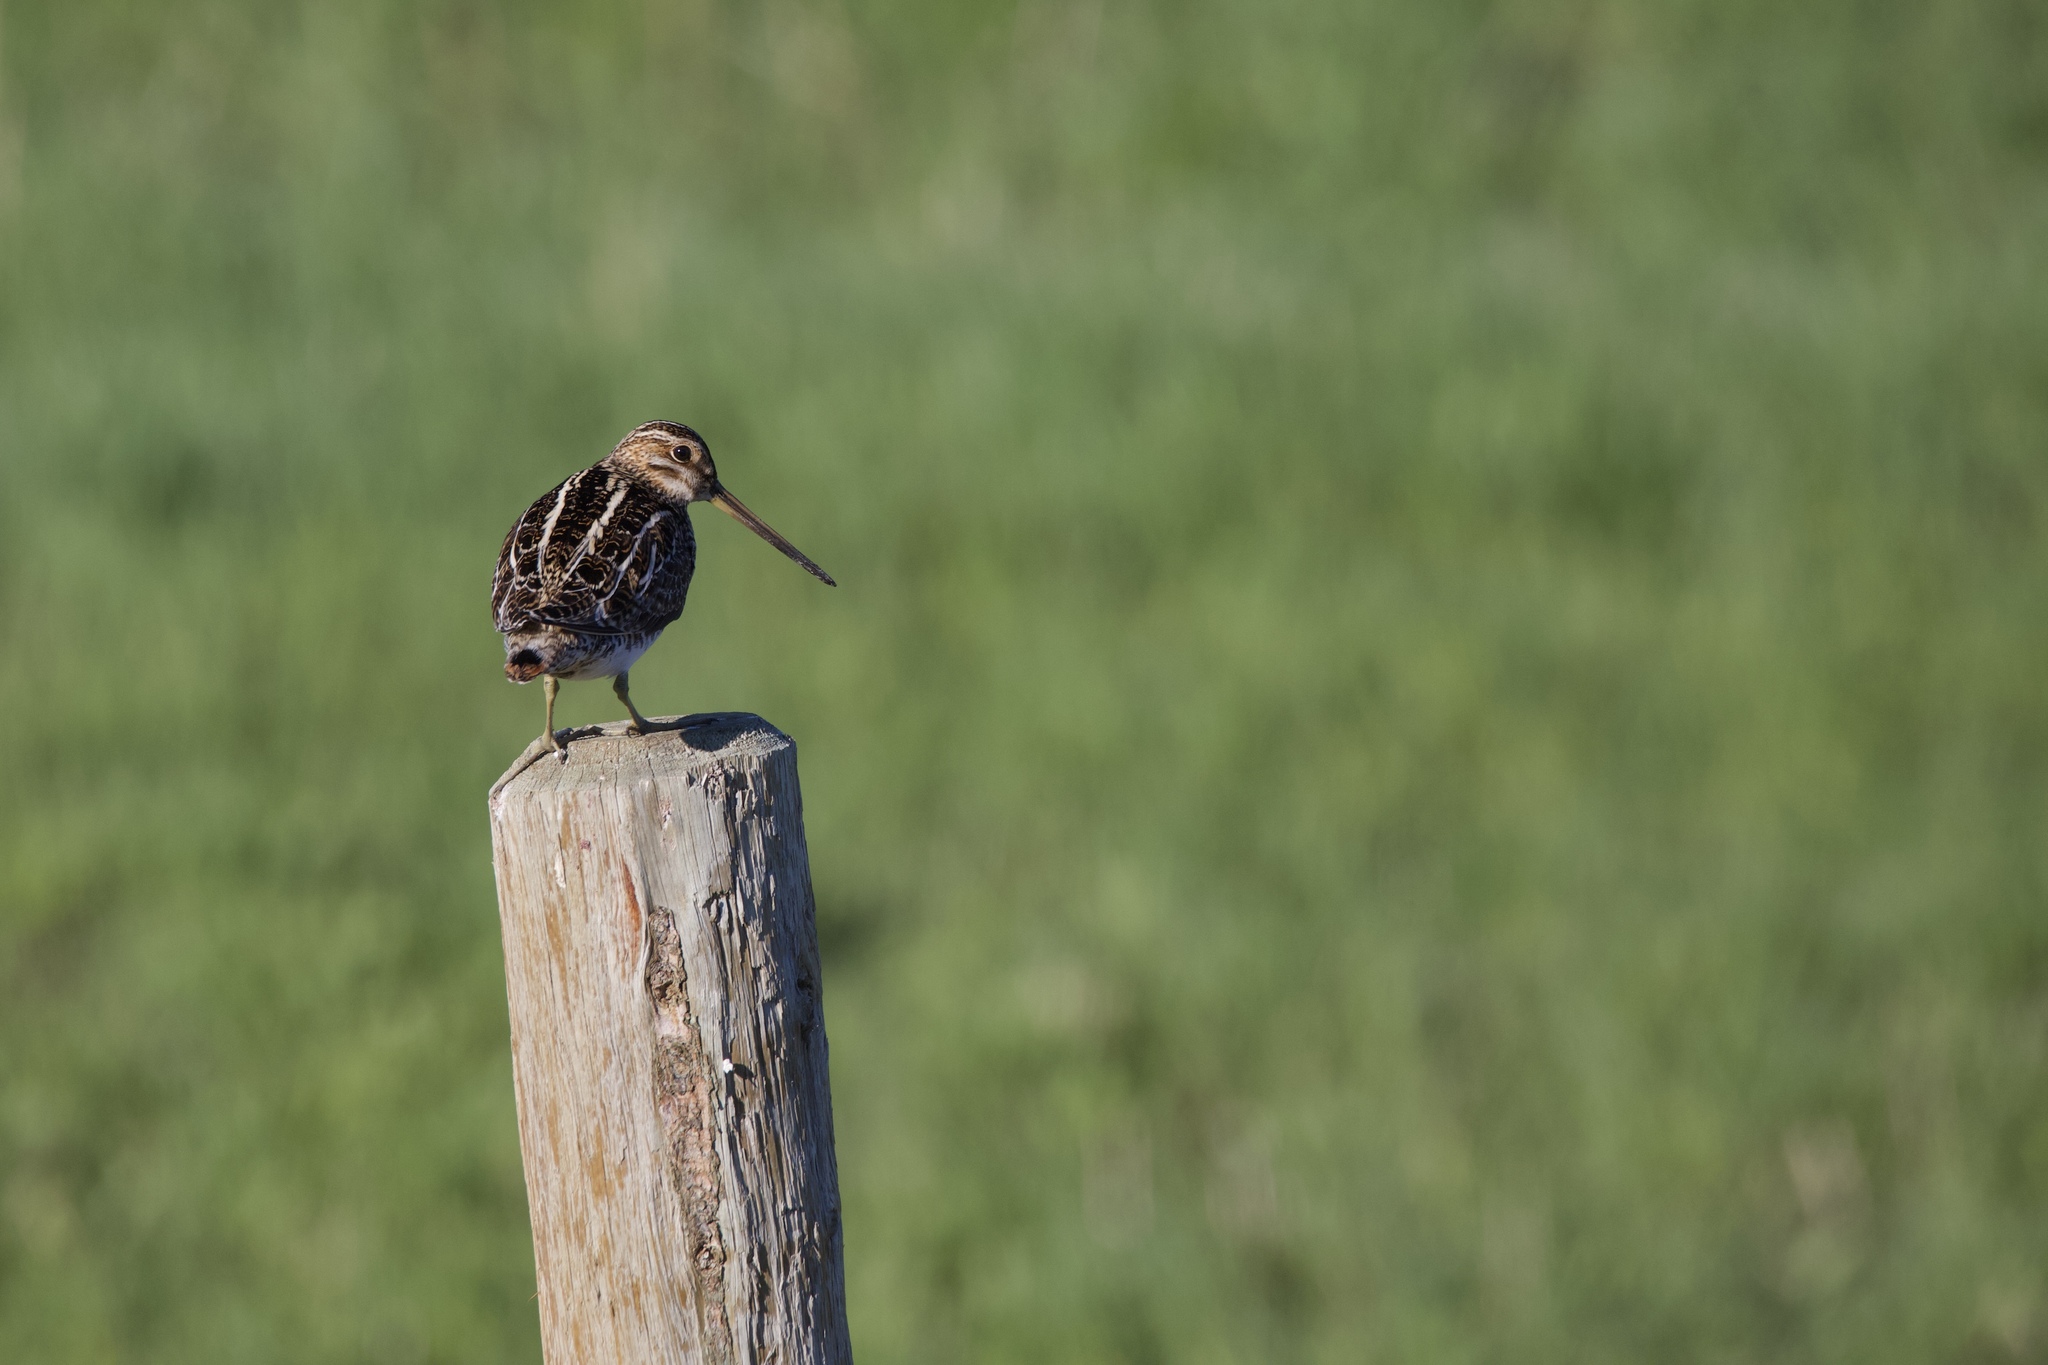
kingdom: Animalia
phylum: Chordata
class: Aves
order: Charadriiformes
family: Scolopacidae
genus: Gallinago
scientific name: Gallinago delicata
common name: Wilson's snipe
